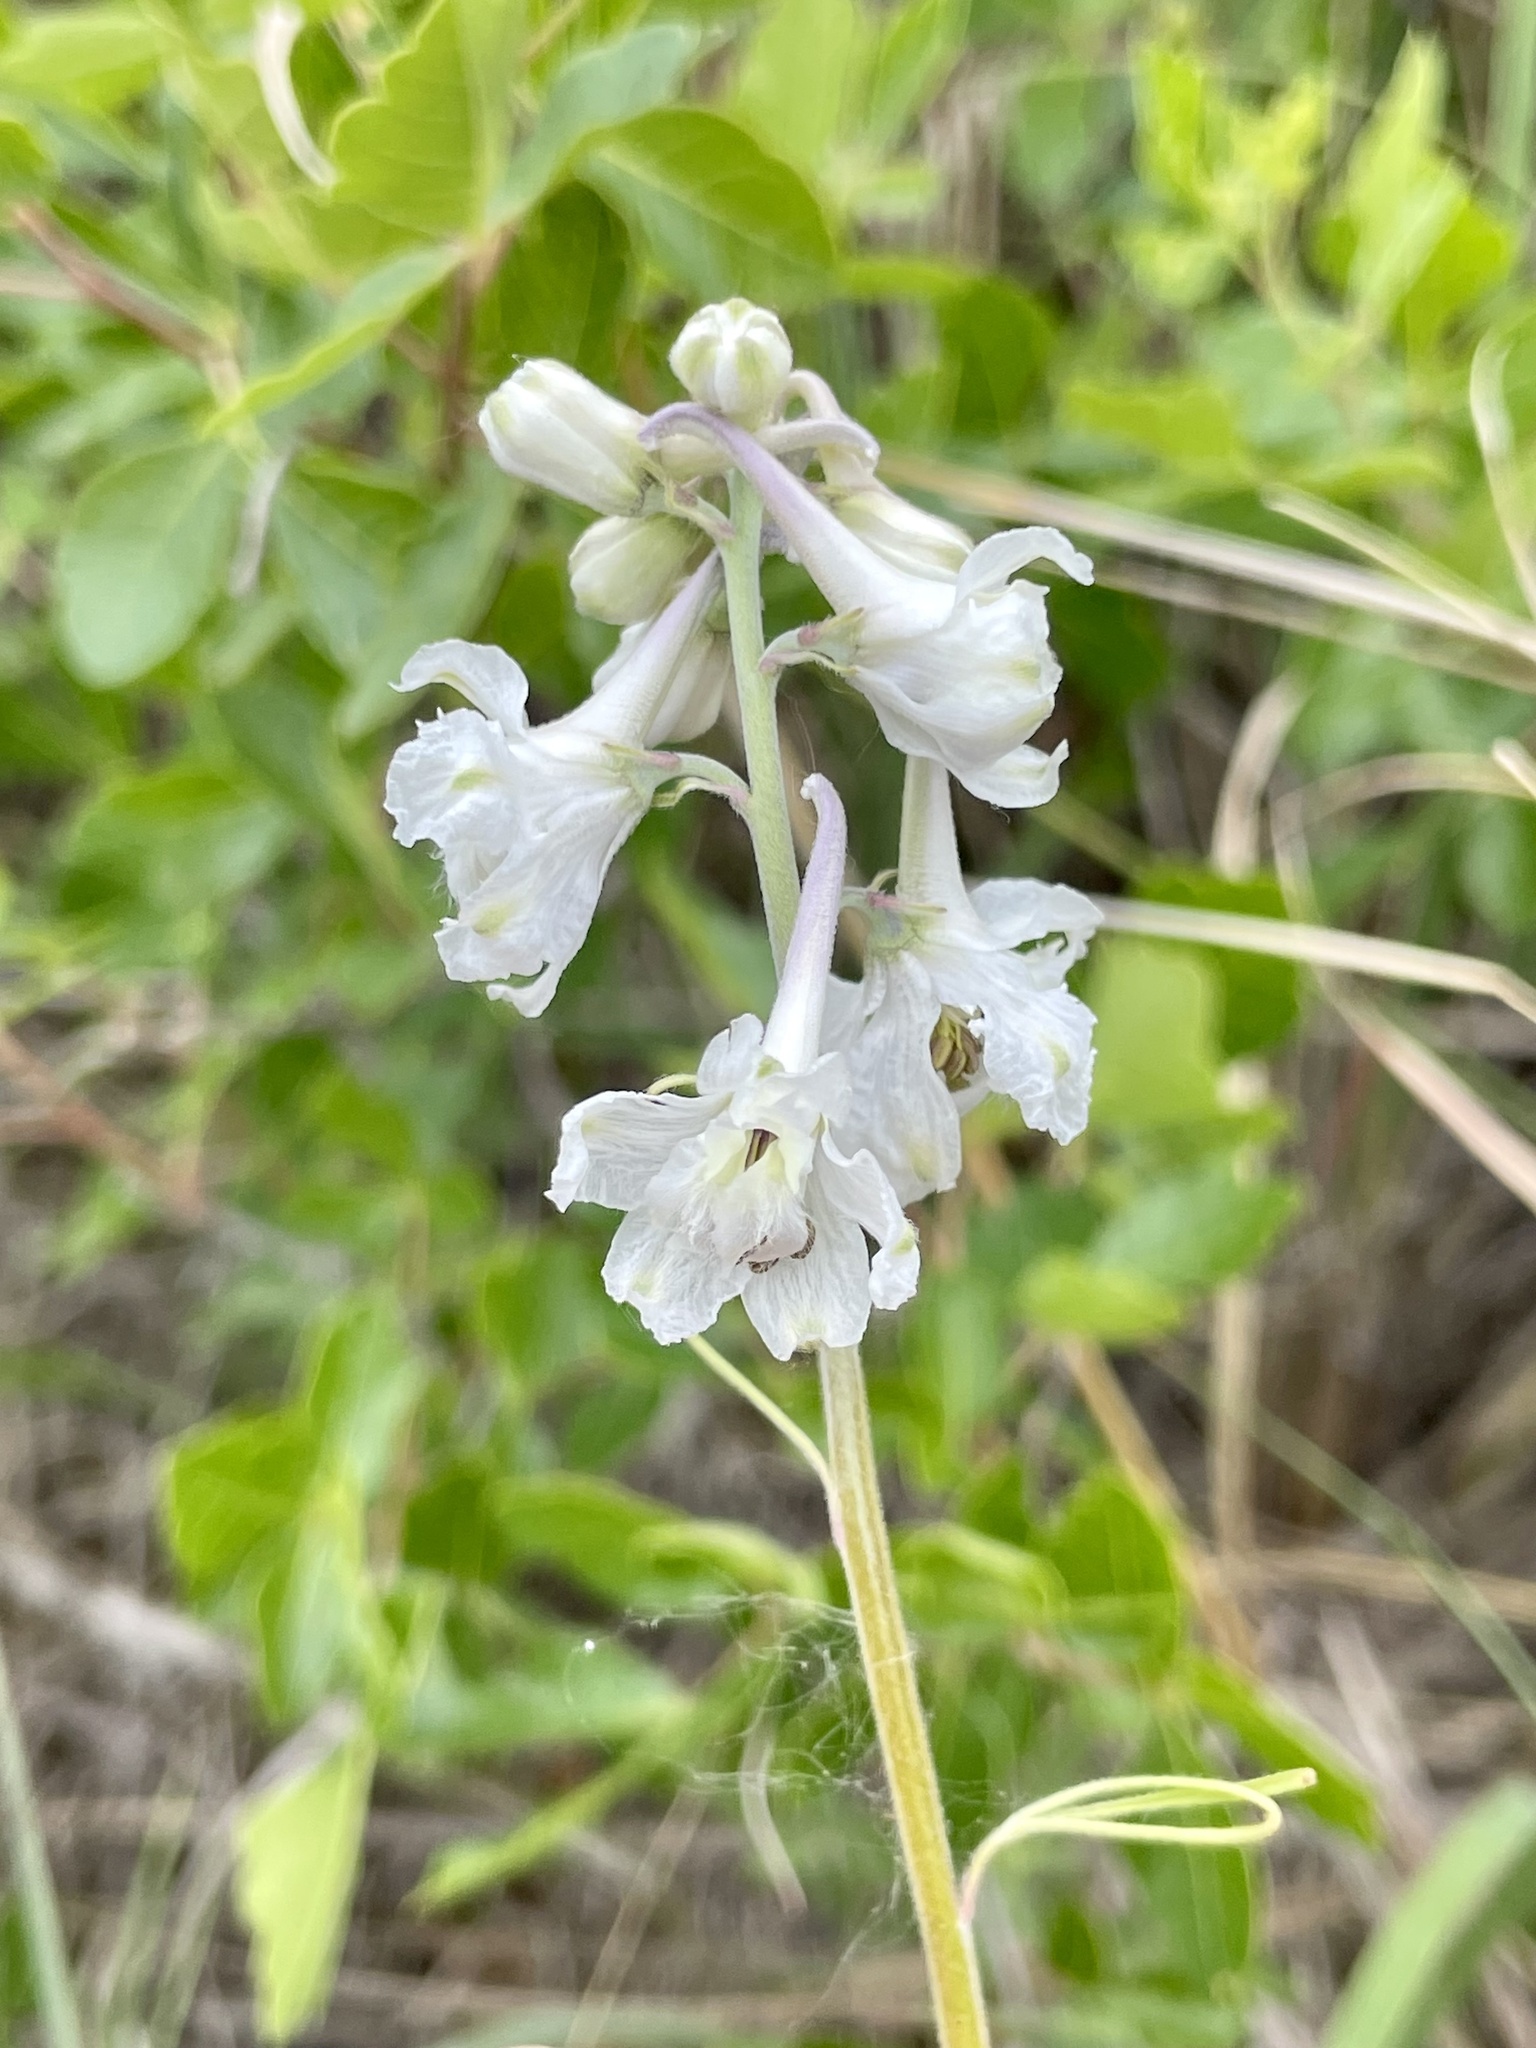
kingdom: Plantae
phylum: Tracheophyta
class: Magnoliopsida
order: Ranunculales
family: Ranunculaceae
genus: Delphinium
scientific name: Delphinium carolinianum
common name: Carolina larkspur
